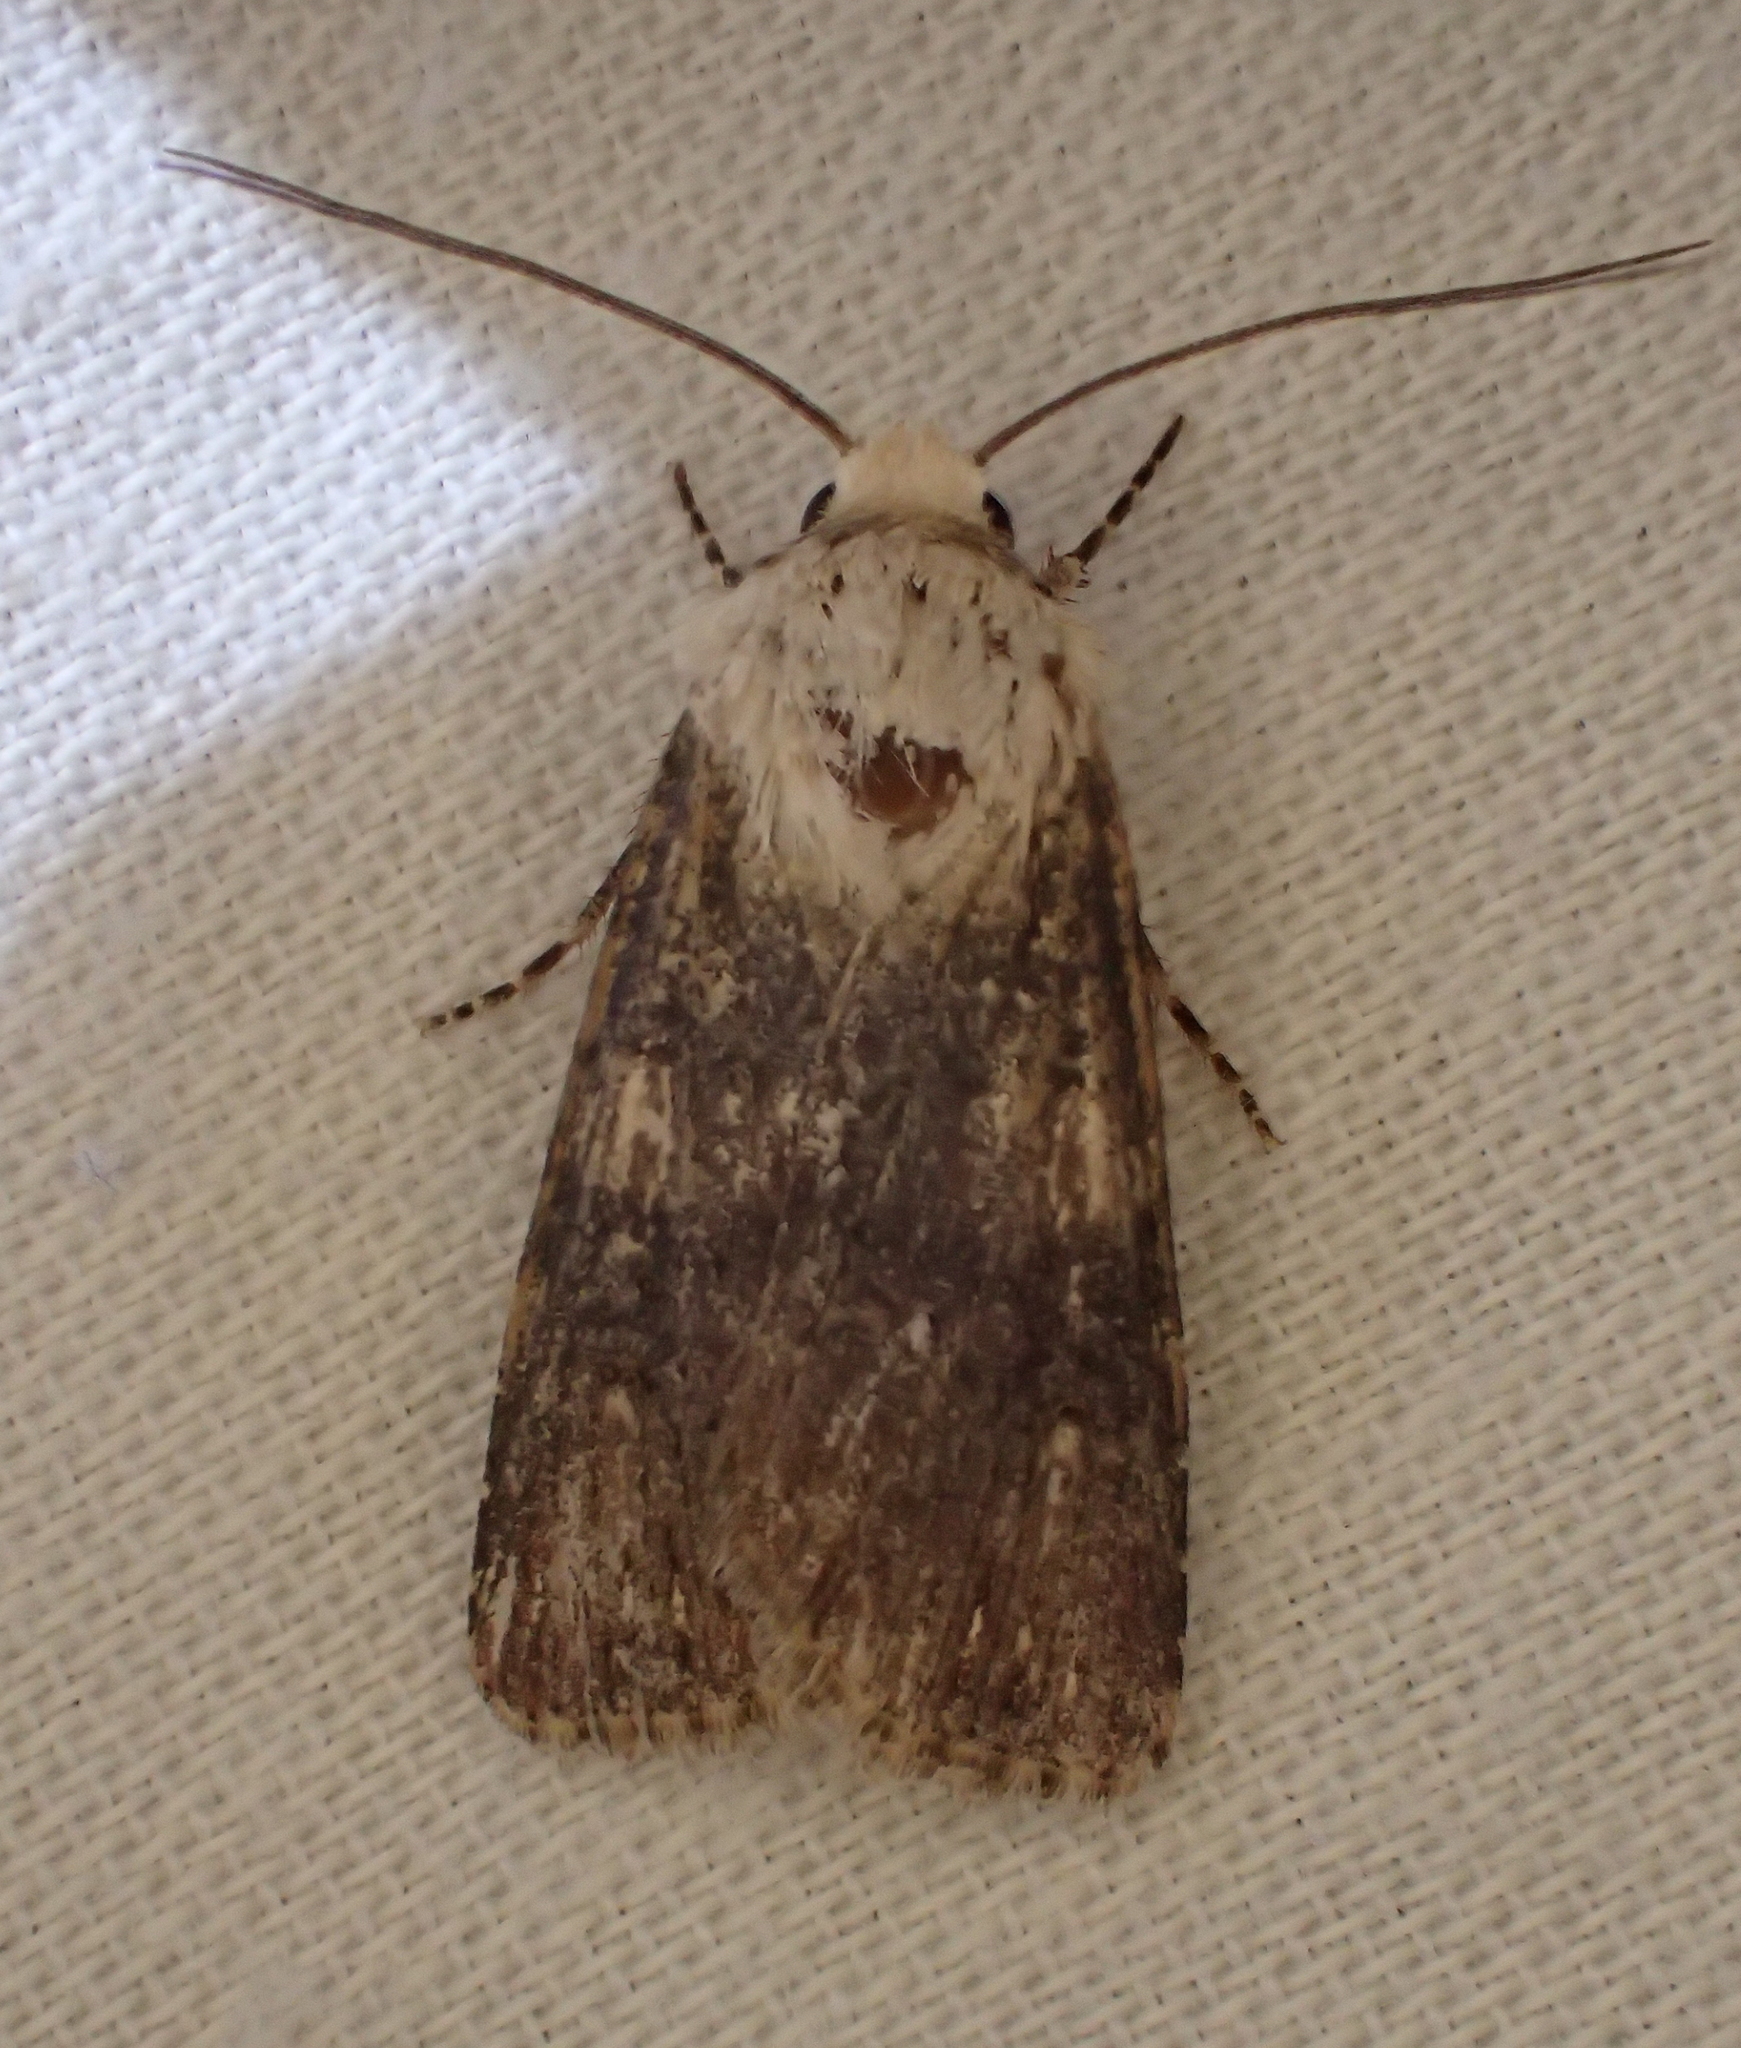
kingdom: Animalia
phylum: Arthropoda
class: Insecta
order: Lepidoptera
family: Noctuidae
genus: Agrotis
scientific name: Agrotis puta
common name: Shuttle-shaped dart
